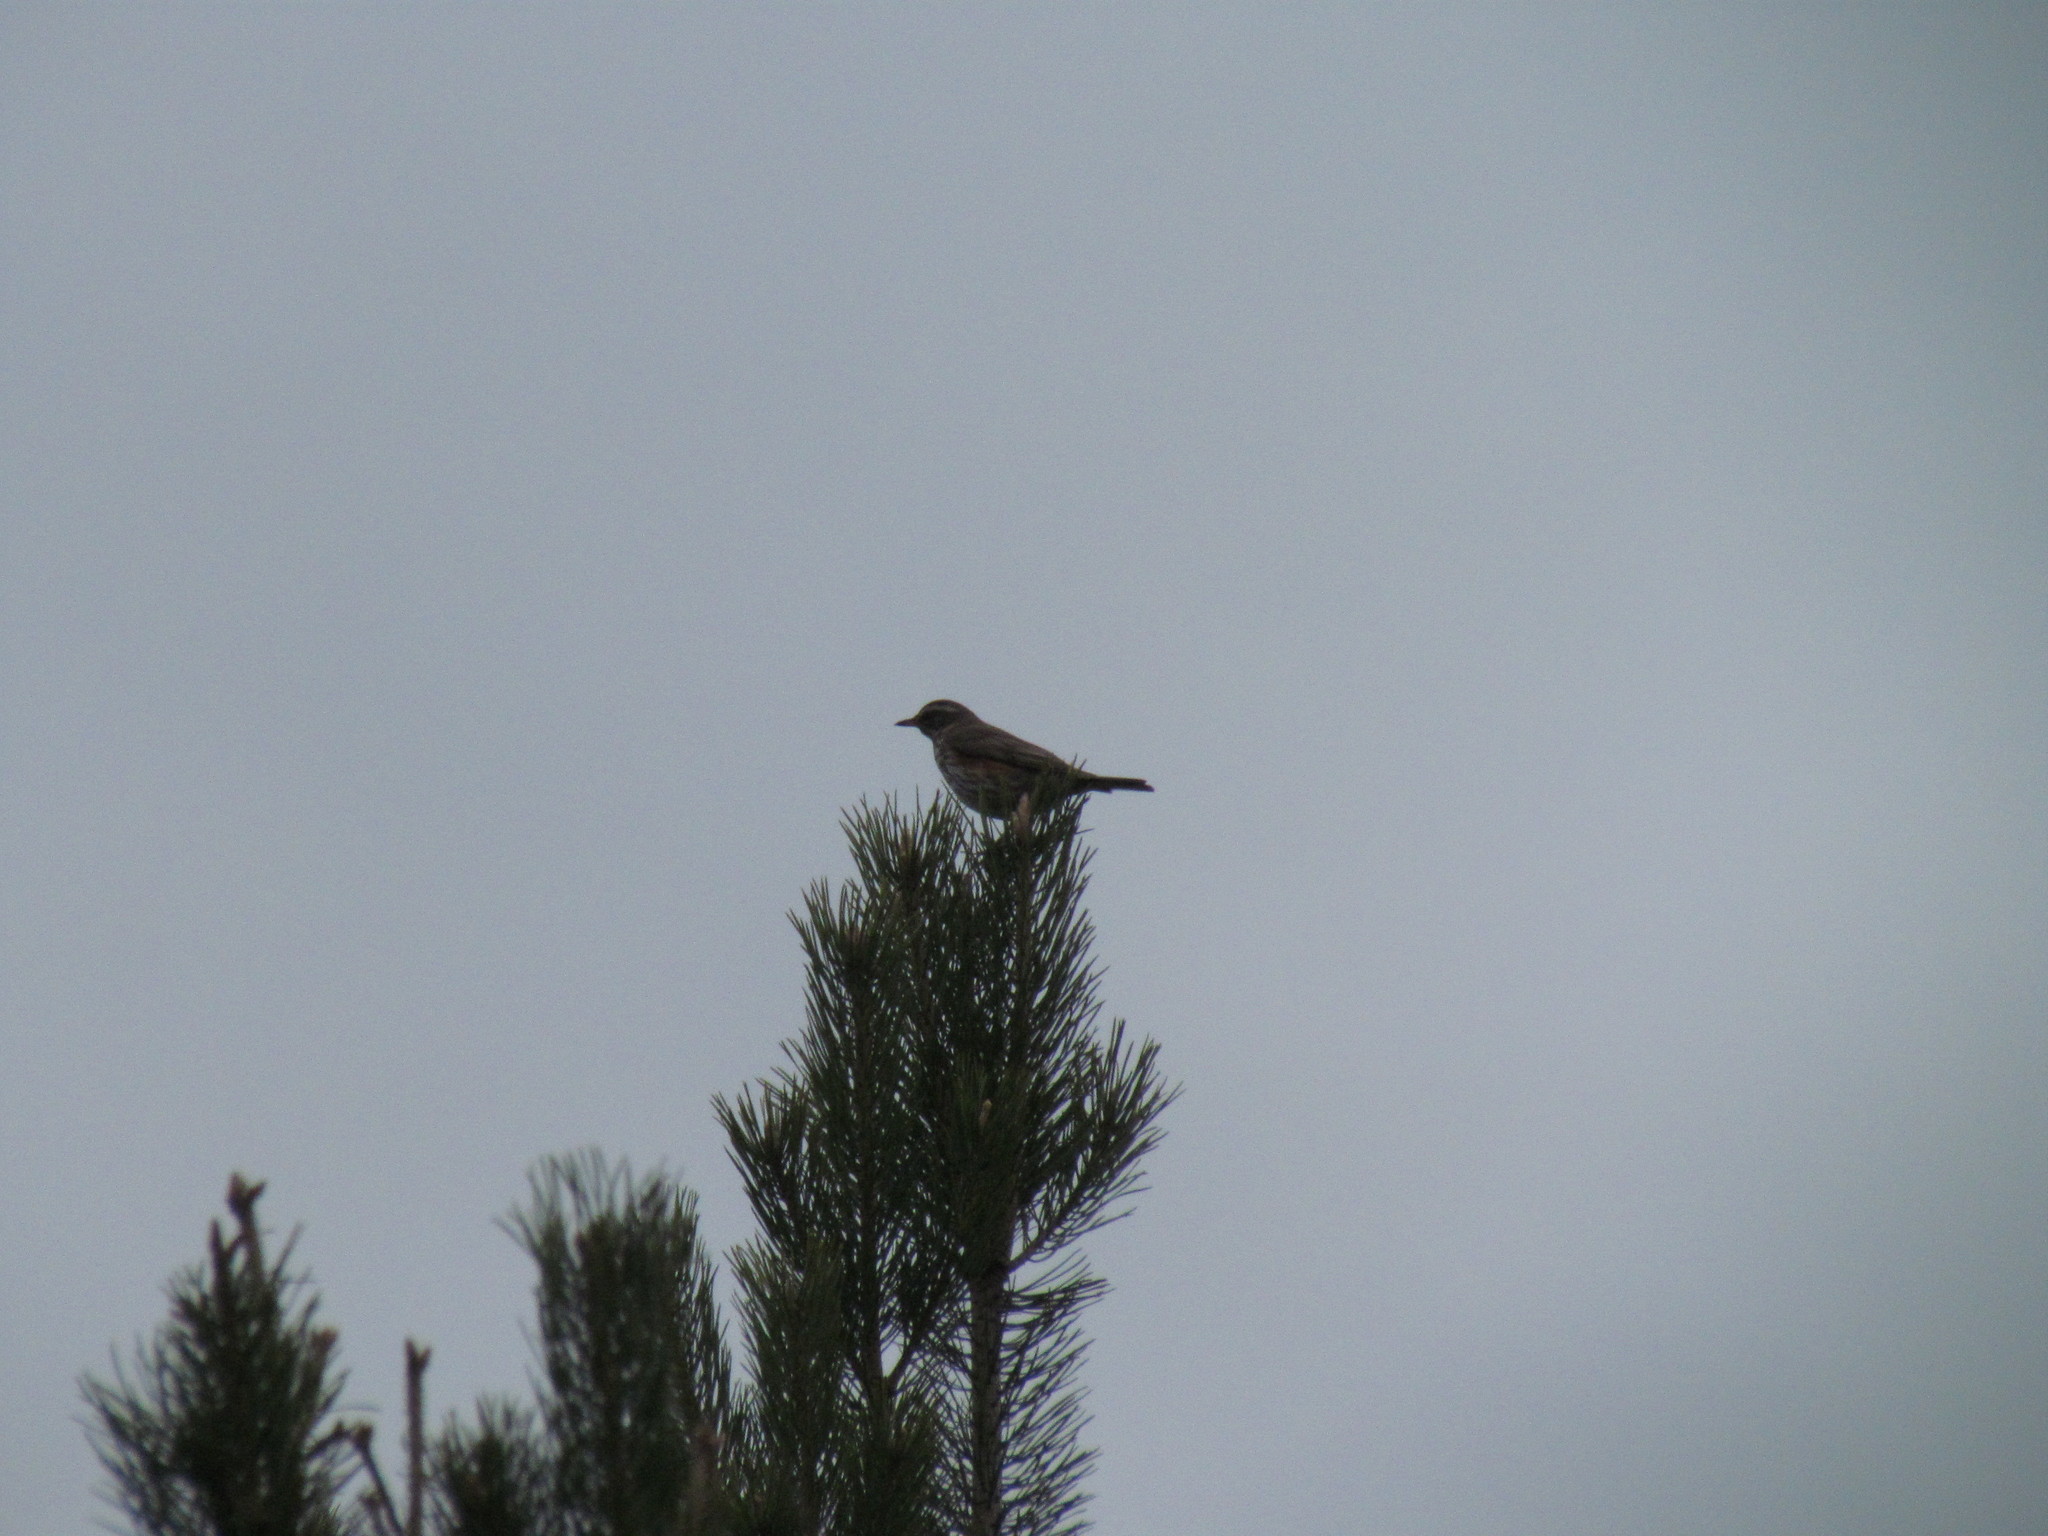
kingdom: Animalia
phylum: Chordata
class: Aves
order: Passeriformes
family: Turdidae
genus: Turdus
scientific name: Turdus iliacus
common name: Redwing
